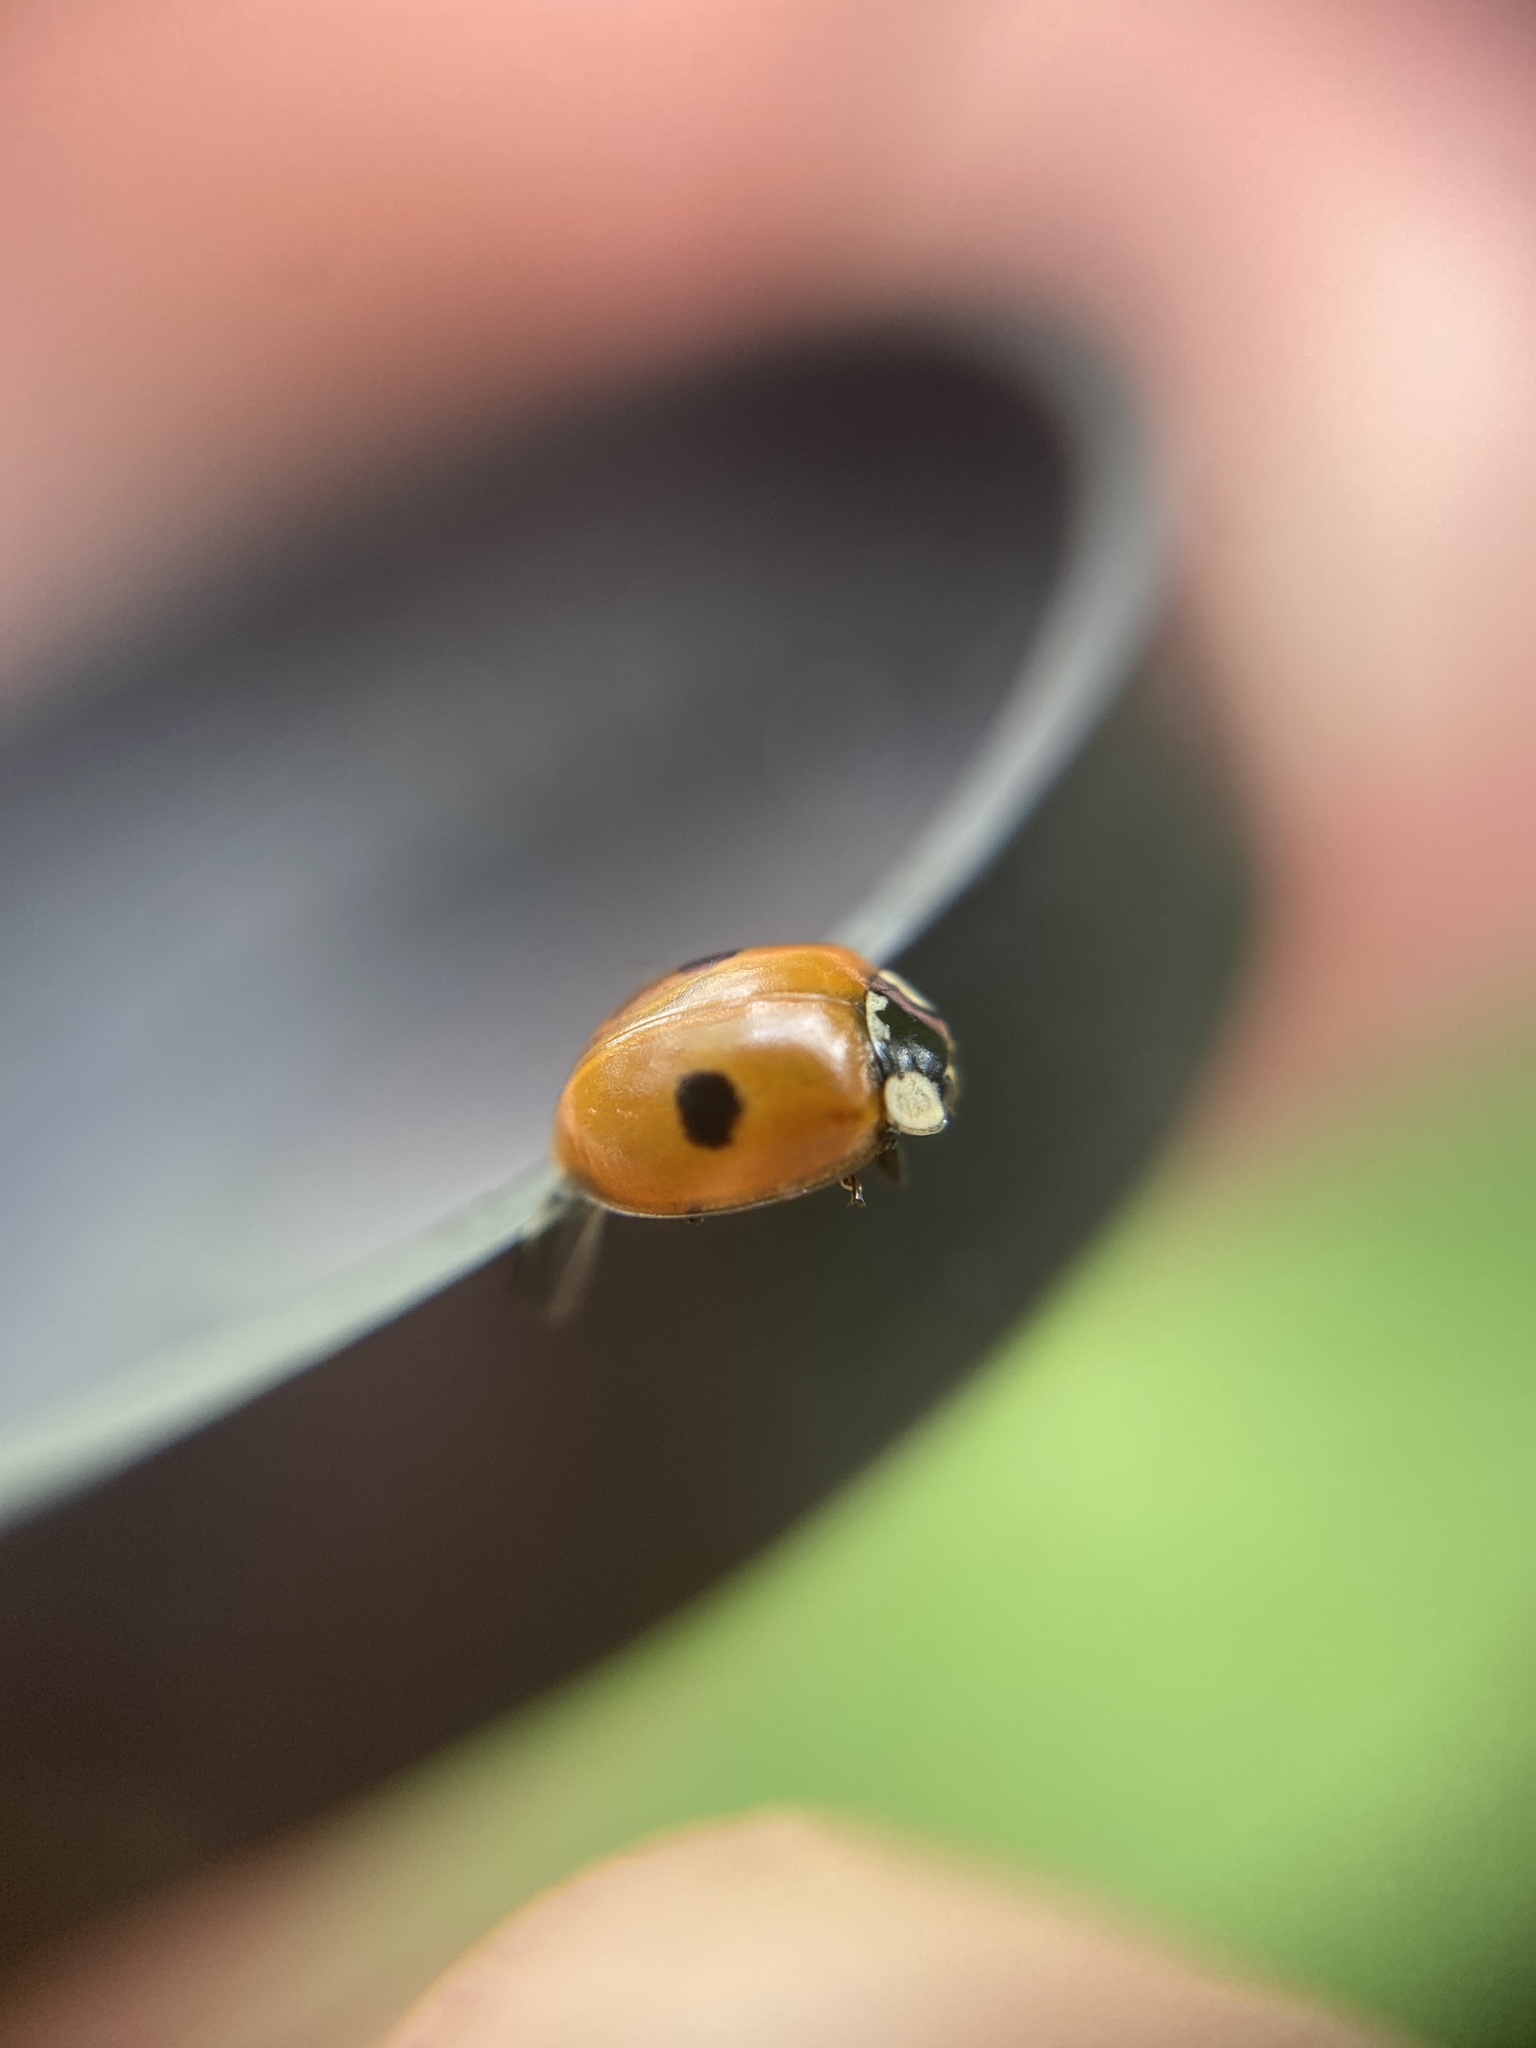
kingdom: Animalia
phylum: Arthropoda
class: Insecta
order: Coleoptera
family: Coccinellidae
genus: Adalia
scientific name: Adalia bipunctata
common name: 2-spot ladybird
